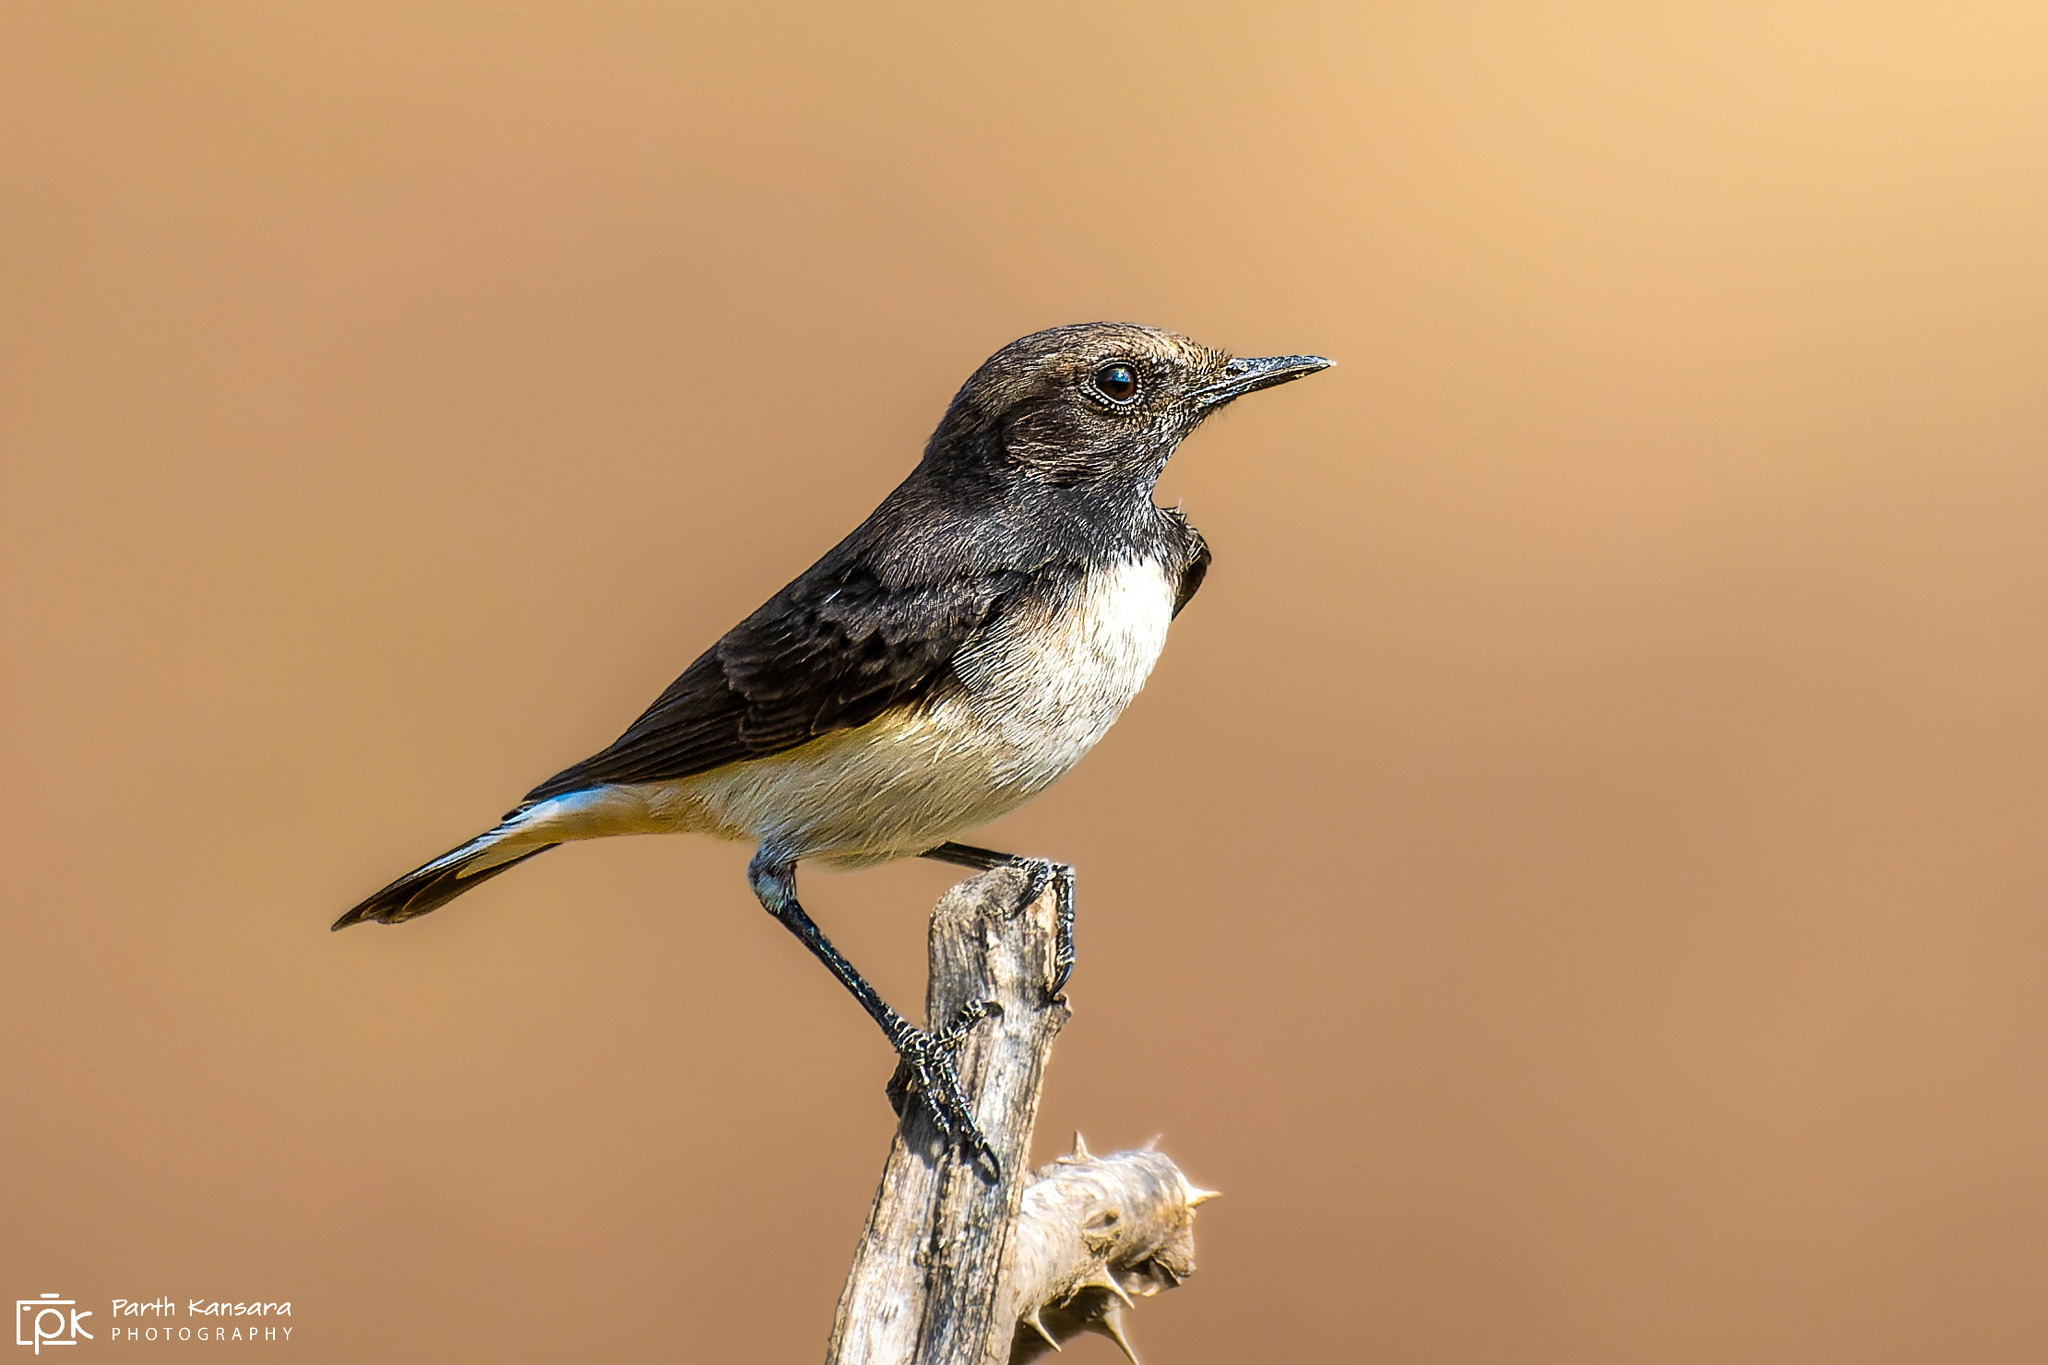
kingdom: Animalia
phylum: Chordata
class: Aves
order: Passeriformes
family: Muscicapidae
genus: Oenanthe
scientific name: Oenanthe picata
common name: Variable wheatear
